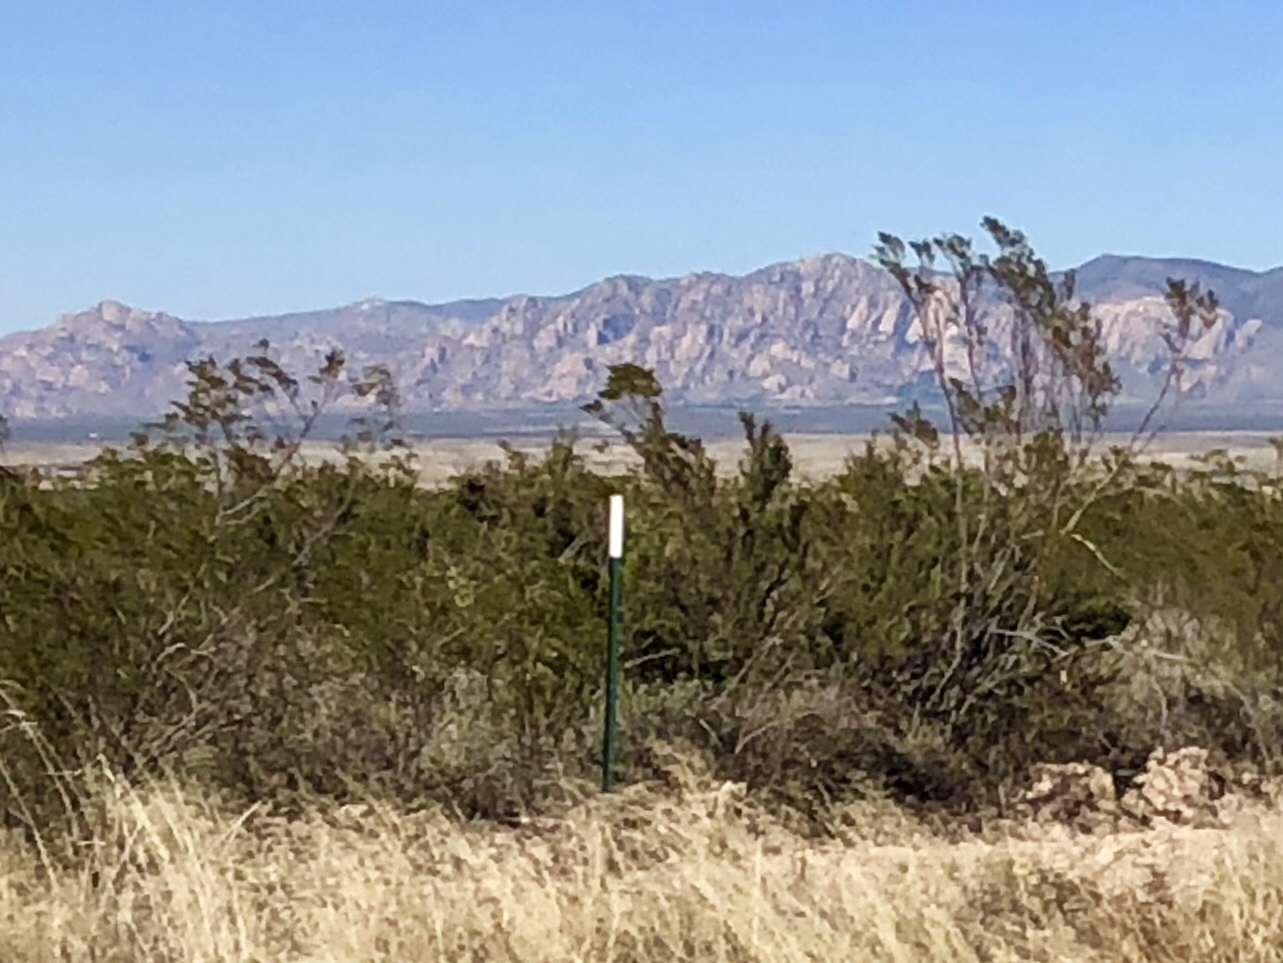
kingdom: Plantae
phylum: Tracheophyta
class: Magnoliopsida
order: Zygophyllales
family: Zygophyllaceae
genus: Larrea
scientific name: Larrea tridentata
